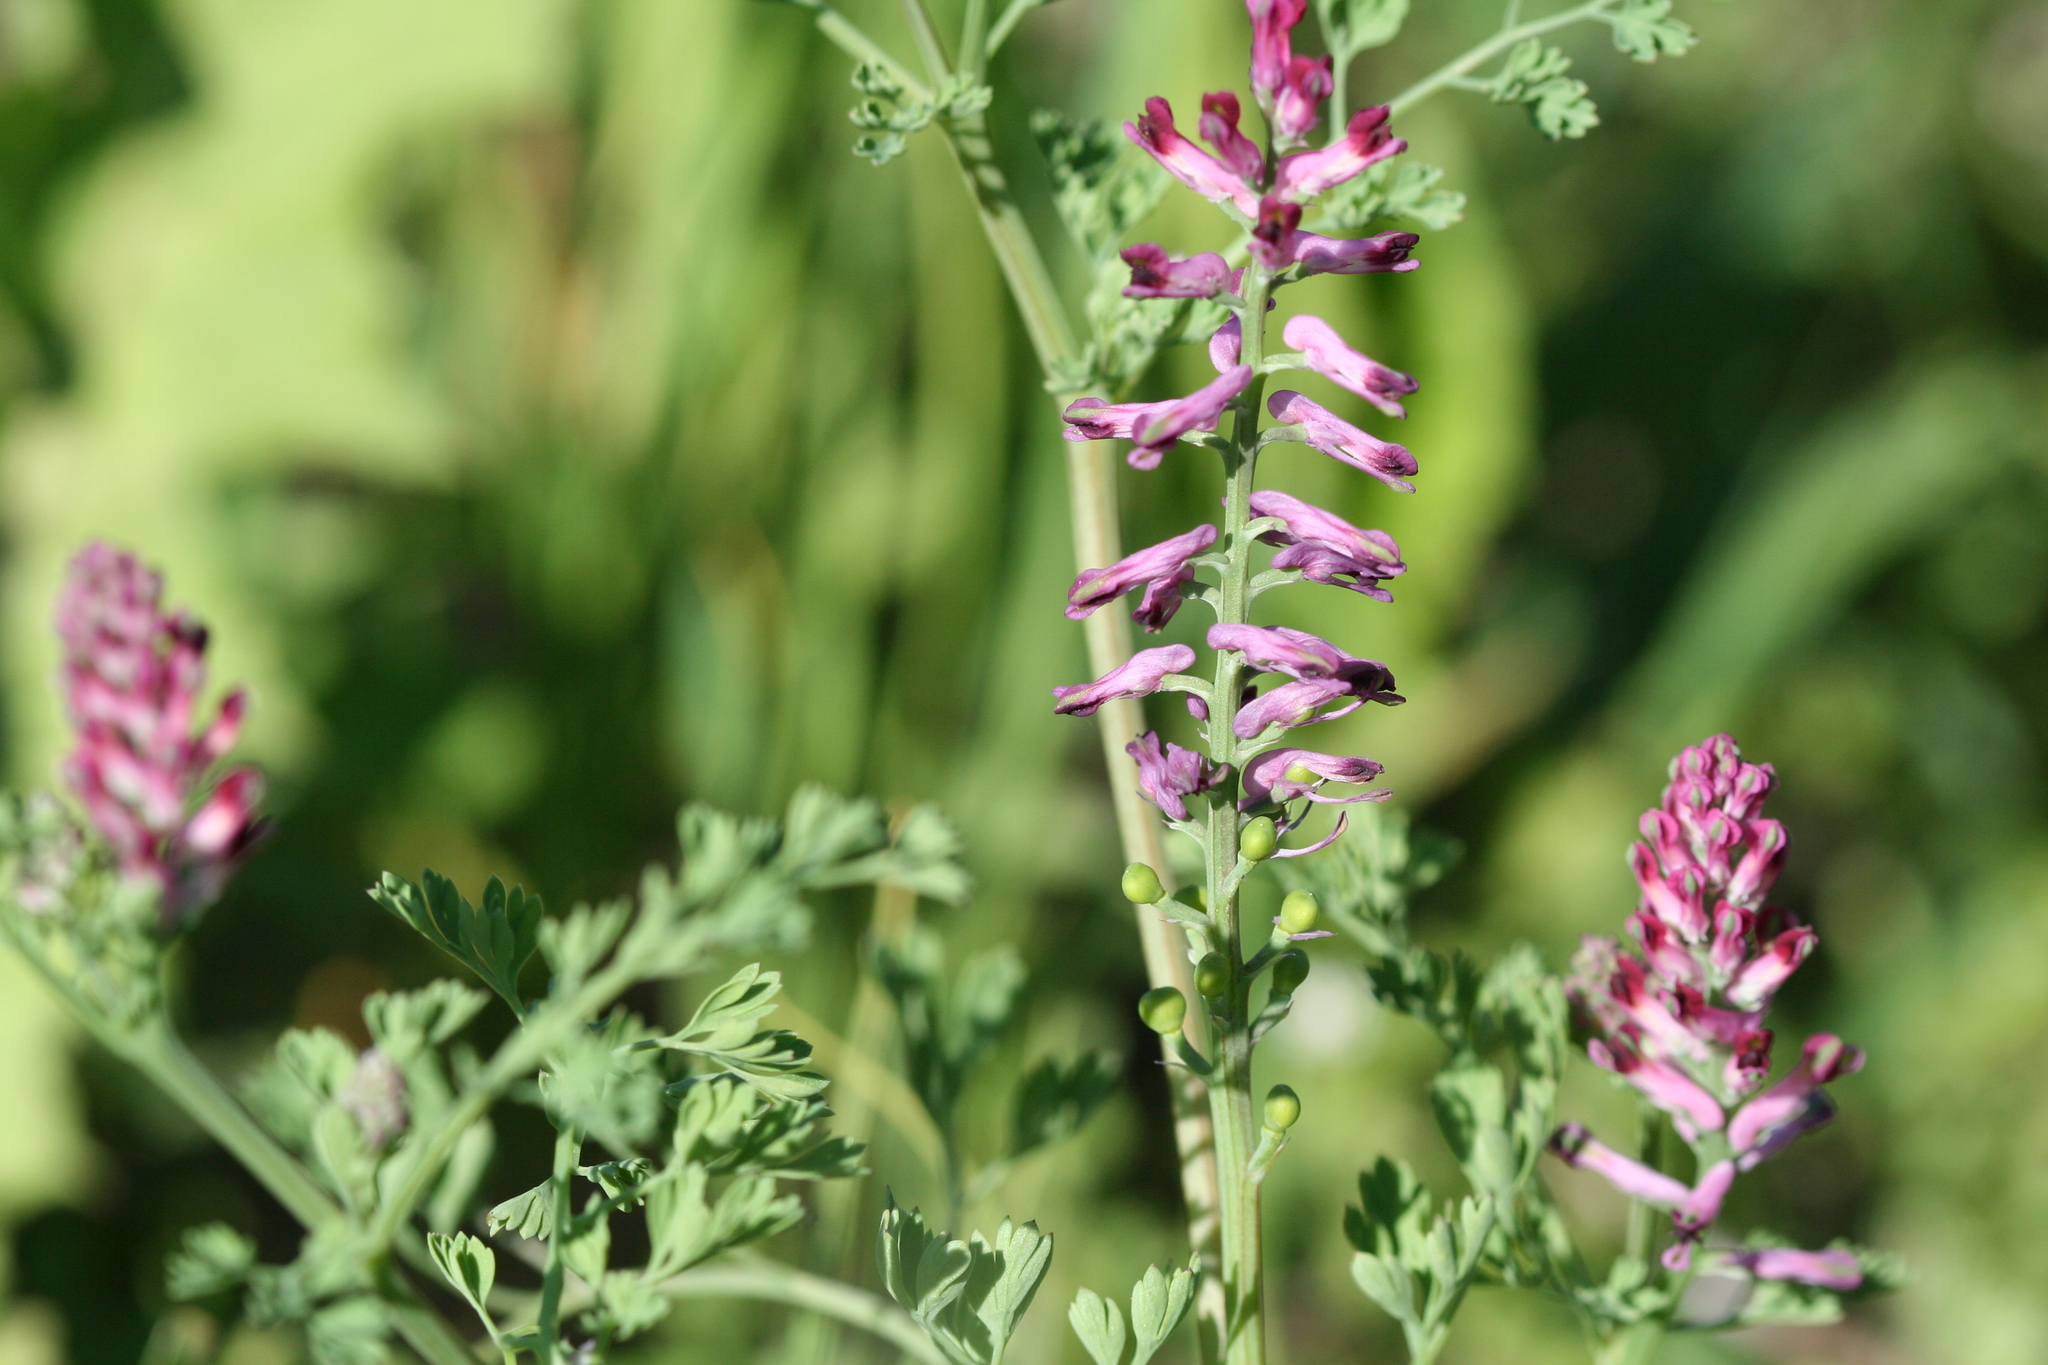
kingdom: Plantae
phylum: Tracheophyta
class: Magnoliopsida
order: Ranunculales
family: Papaveraceae
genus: Fumaria
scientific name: Fumaria officinalis
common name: Common fumitory
